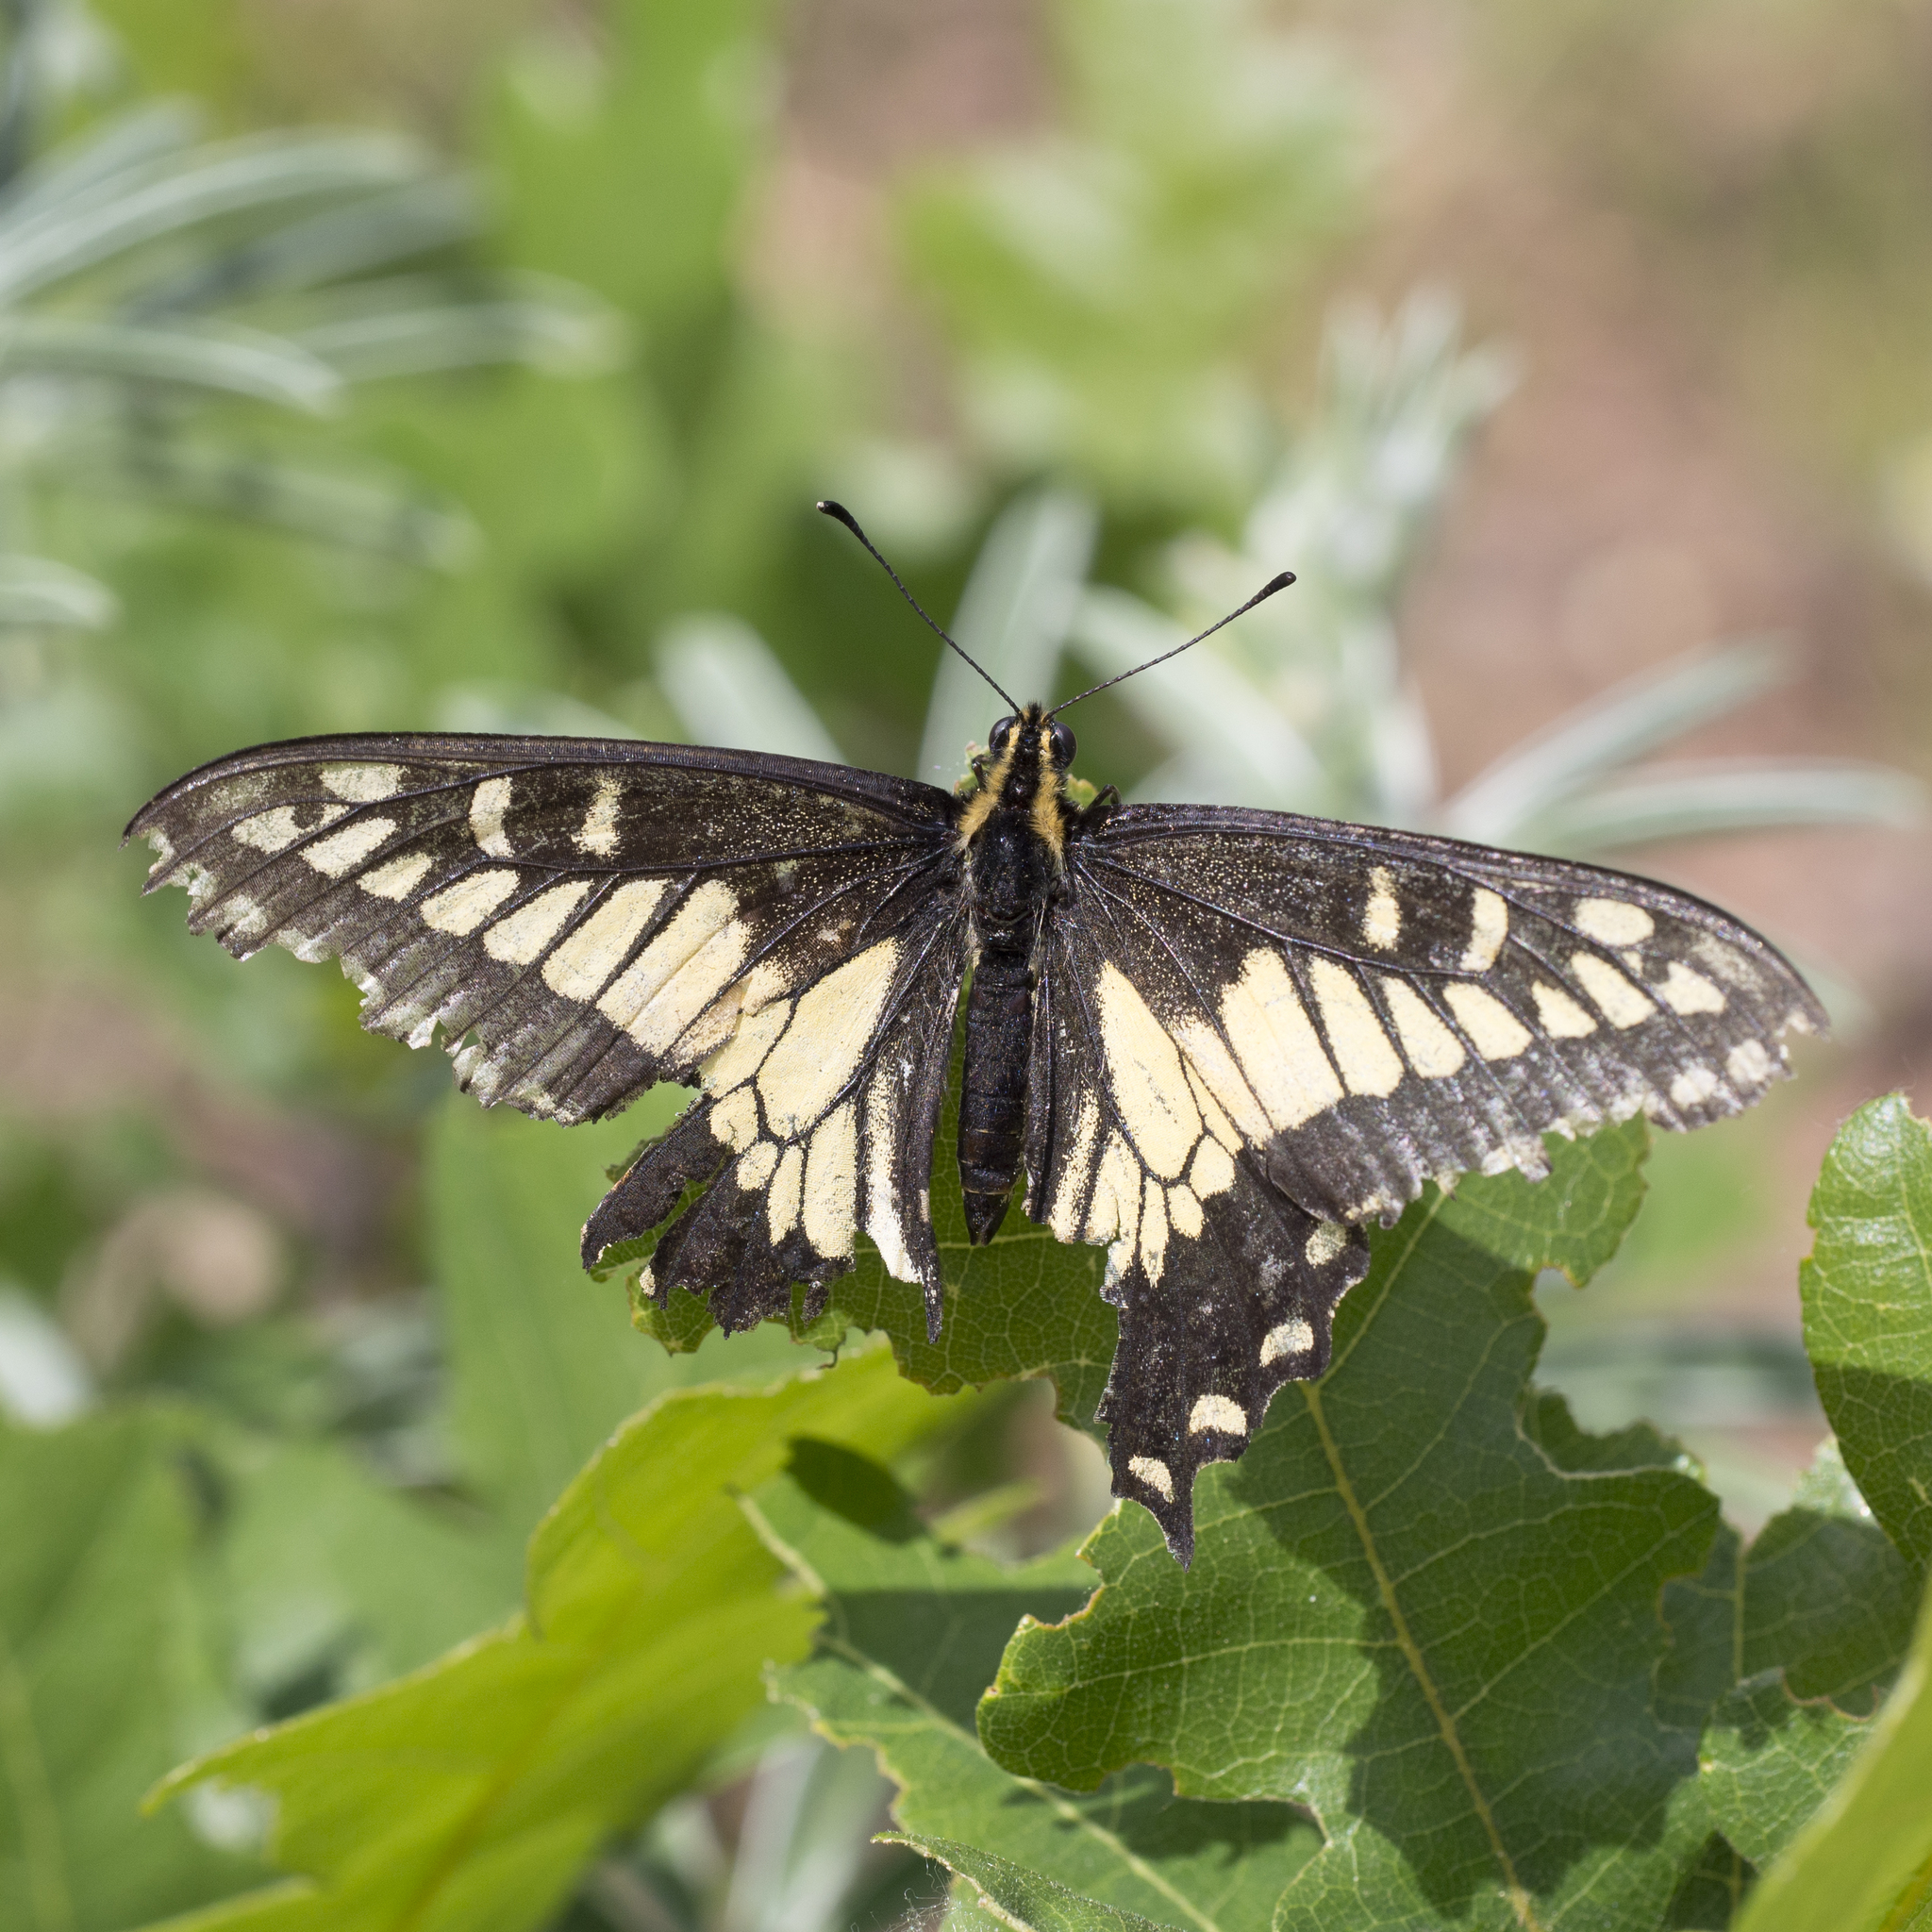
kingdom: Animalia
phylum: Arthropoda
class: Insecta
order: Lepidoptera
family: Papilionidae
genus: Papilio
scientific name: Papilio zelicaon
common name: Anise swallowtail
